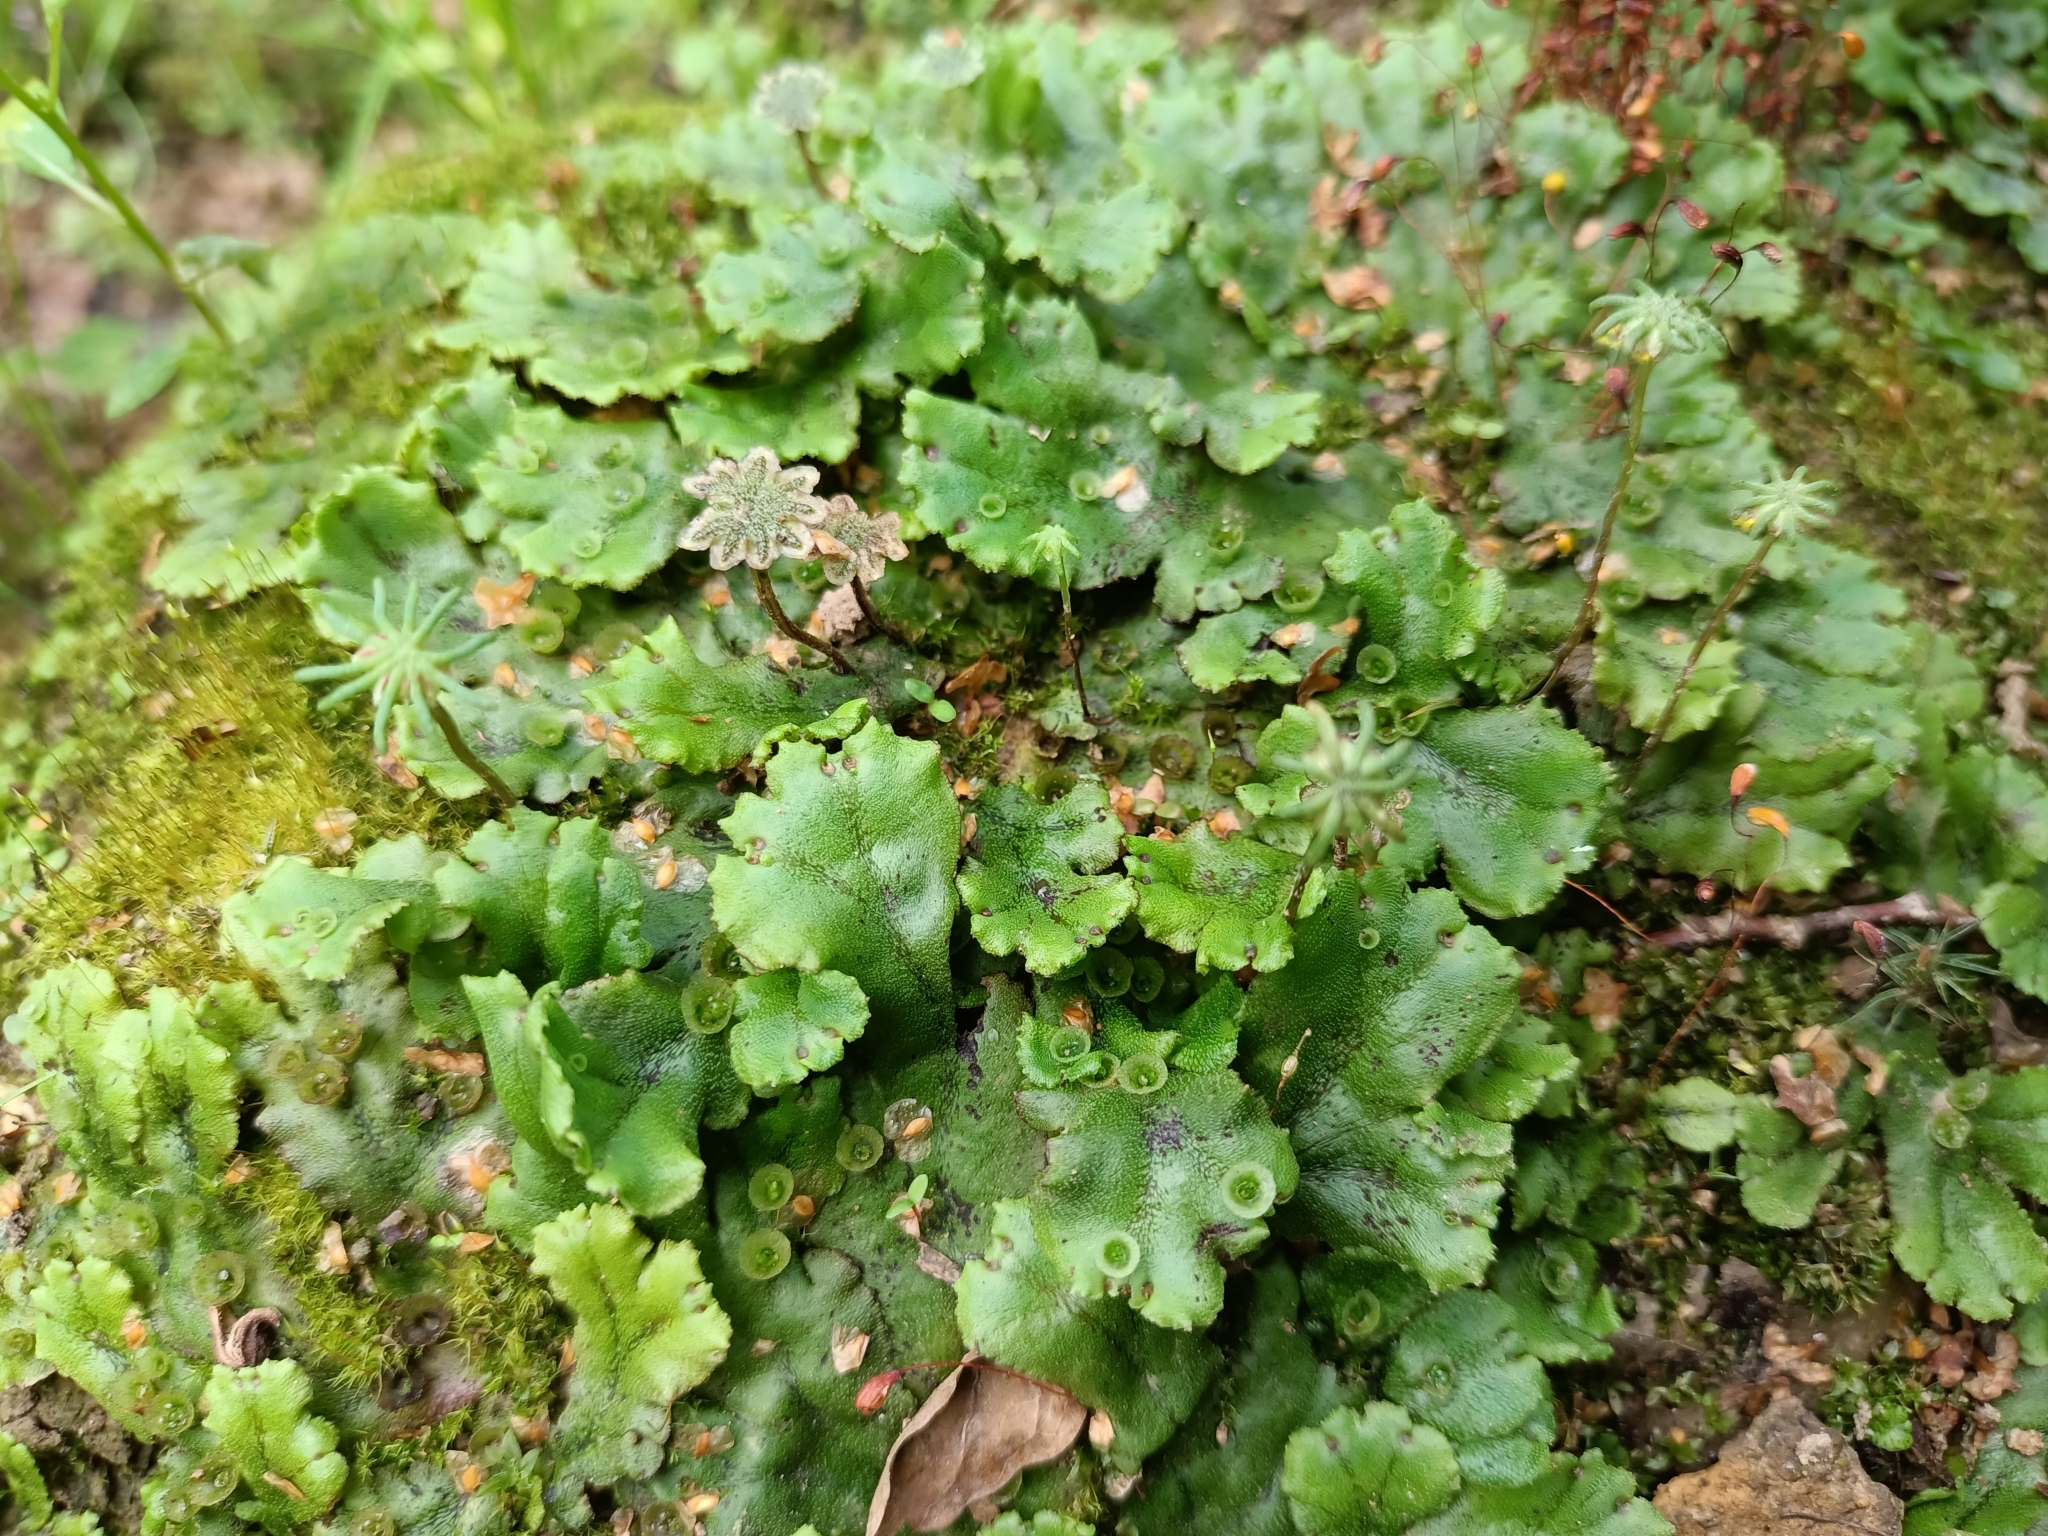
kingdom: Plantae
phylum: Marchantiophyta
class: Marchantiopsida
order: Marchantiales
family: Marchantiaceae
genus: Marchantia
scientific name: Marchantia polymorpha
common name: Common liverwort
